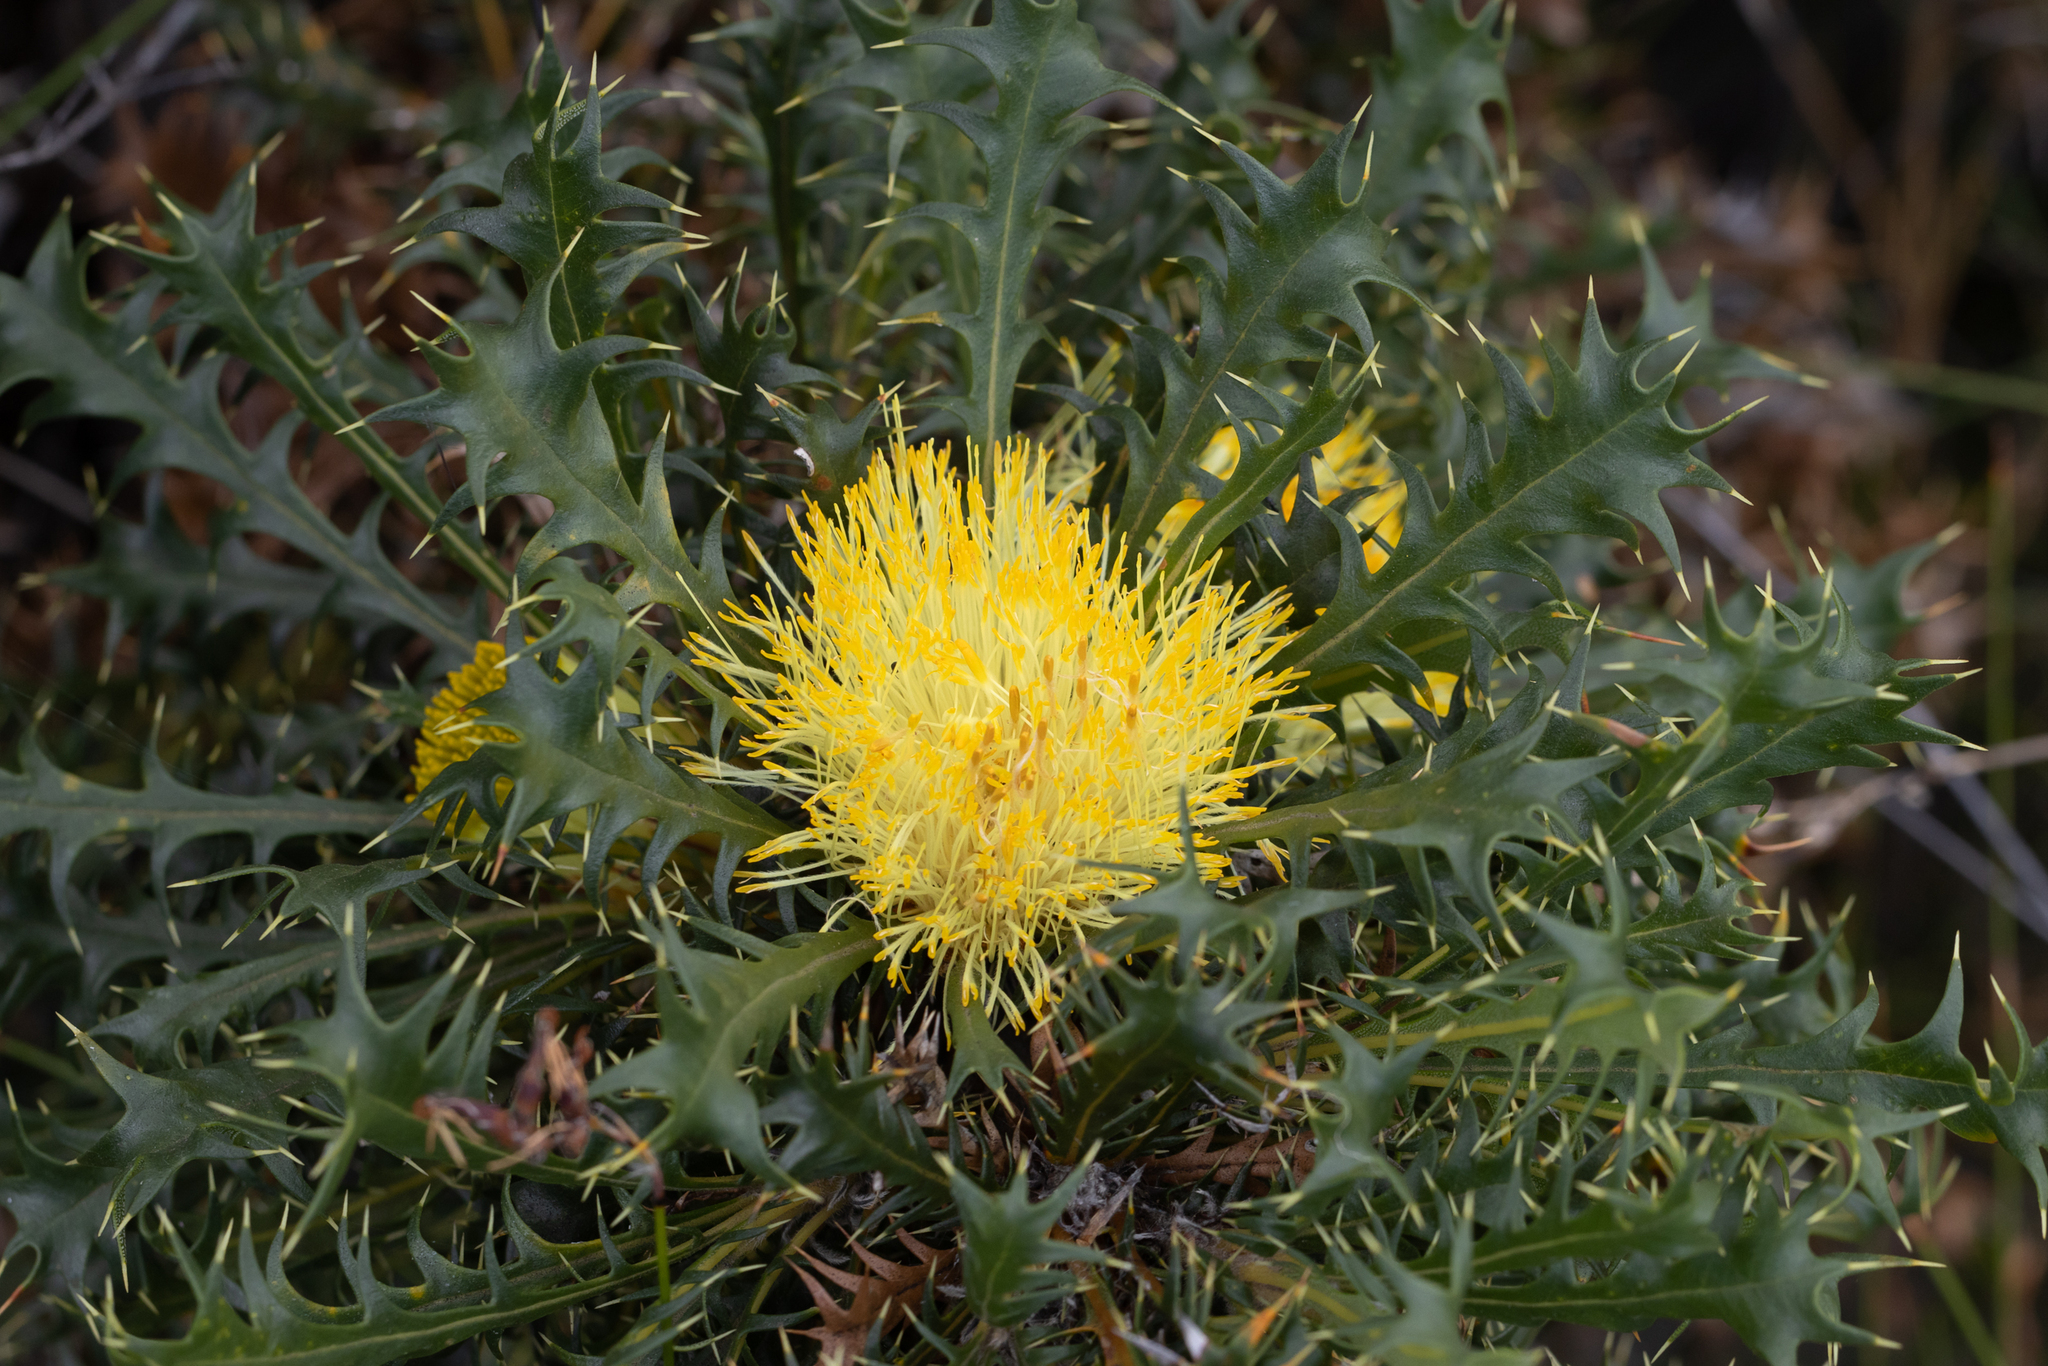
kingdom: Plantae
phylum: Tracheophyta
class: Magnoliopsida
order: Proteales
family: Proteaceae
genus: Banksia
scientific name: Banksia falcata
